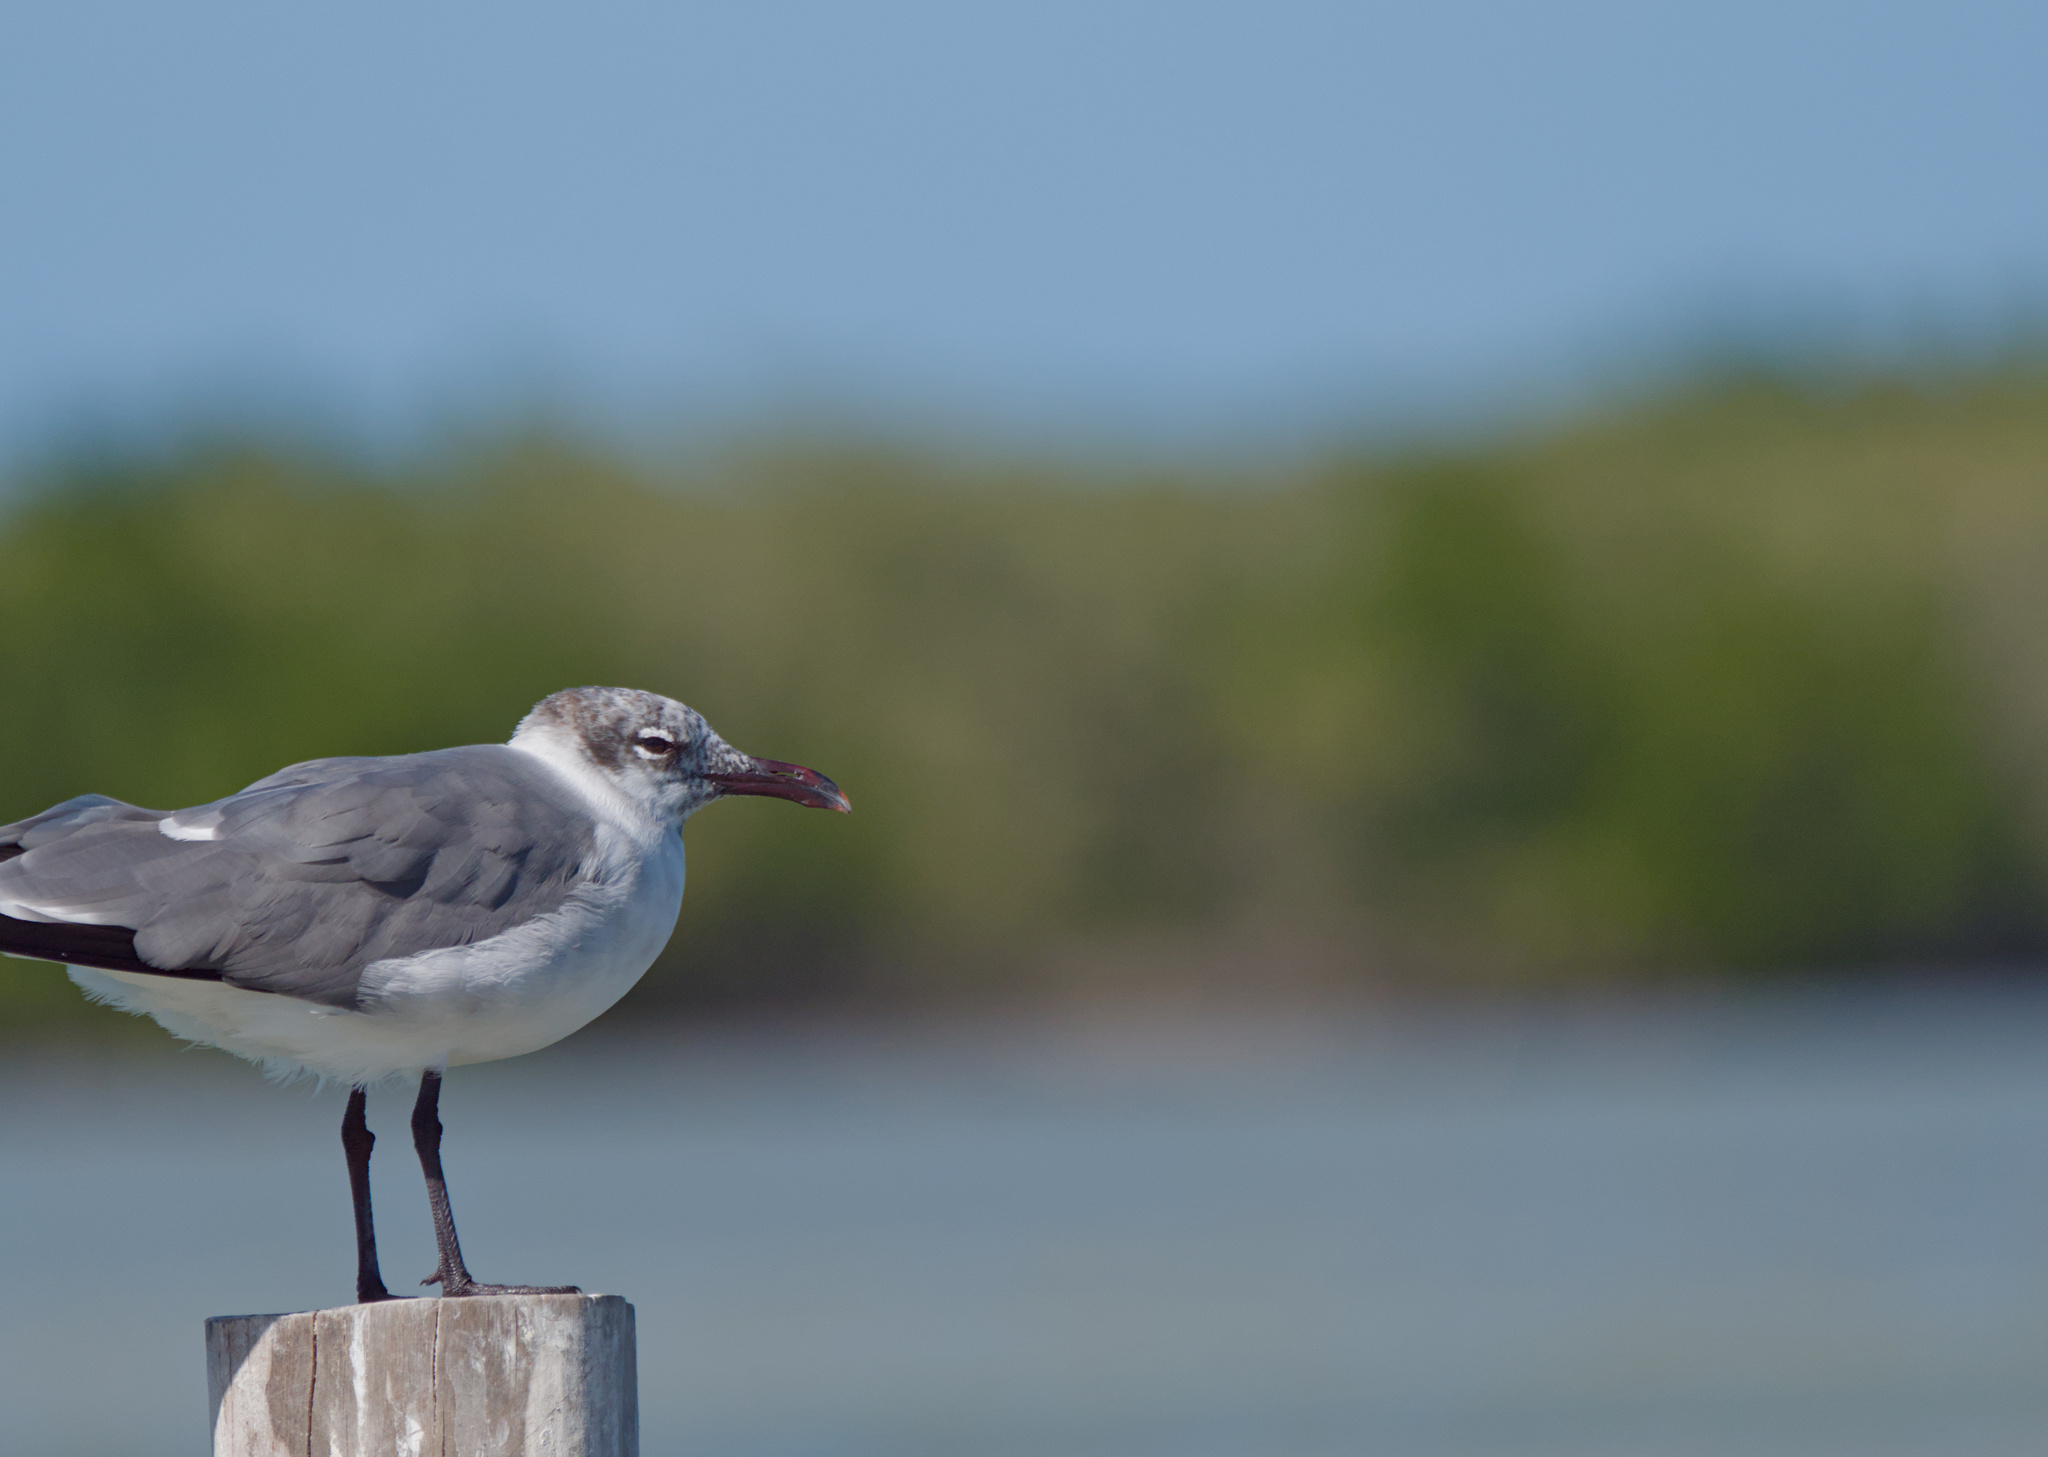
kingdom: Animalia
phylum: Chordata
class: Aves
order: Charadriiformes
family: Laridae
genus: Leucophaeus
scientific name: Leucophaeus atricilla
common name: Laughing gull
